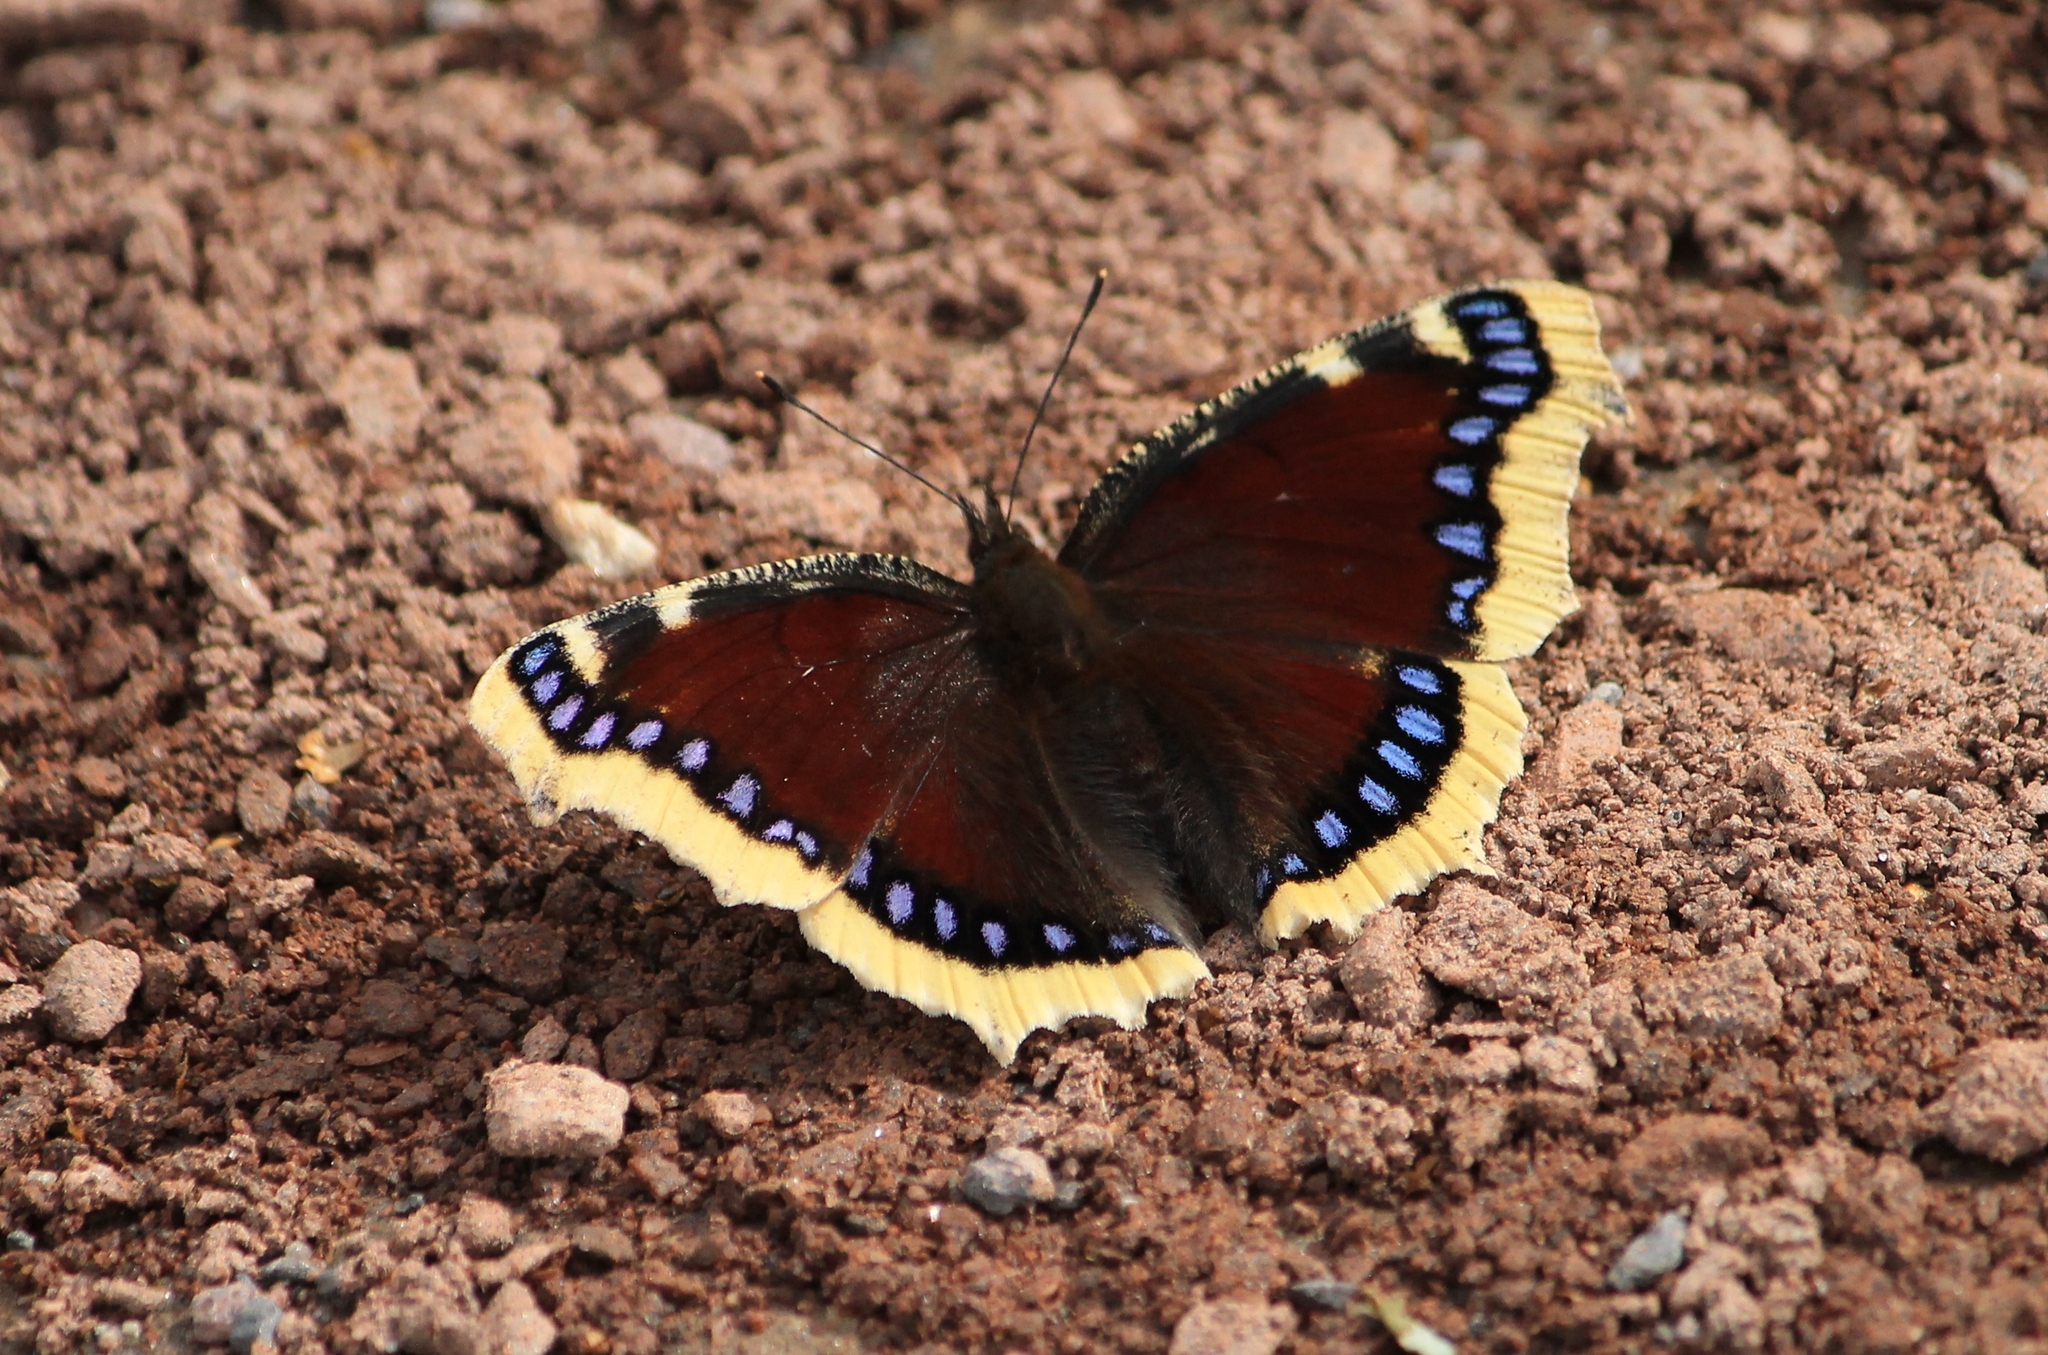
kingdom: Animalia
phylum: Arthropoda
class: Insecta
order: Lepidoptera
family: Nymphalidae
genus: Nymphalis
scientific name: Nymphalis antiopa
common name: Camberwell beauty
